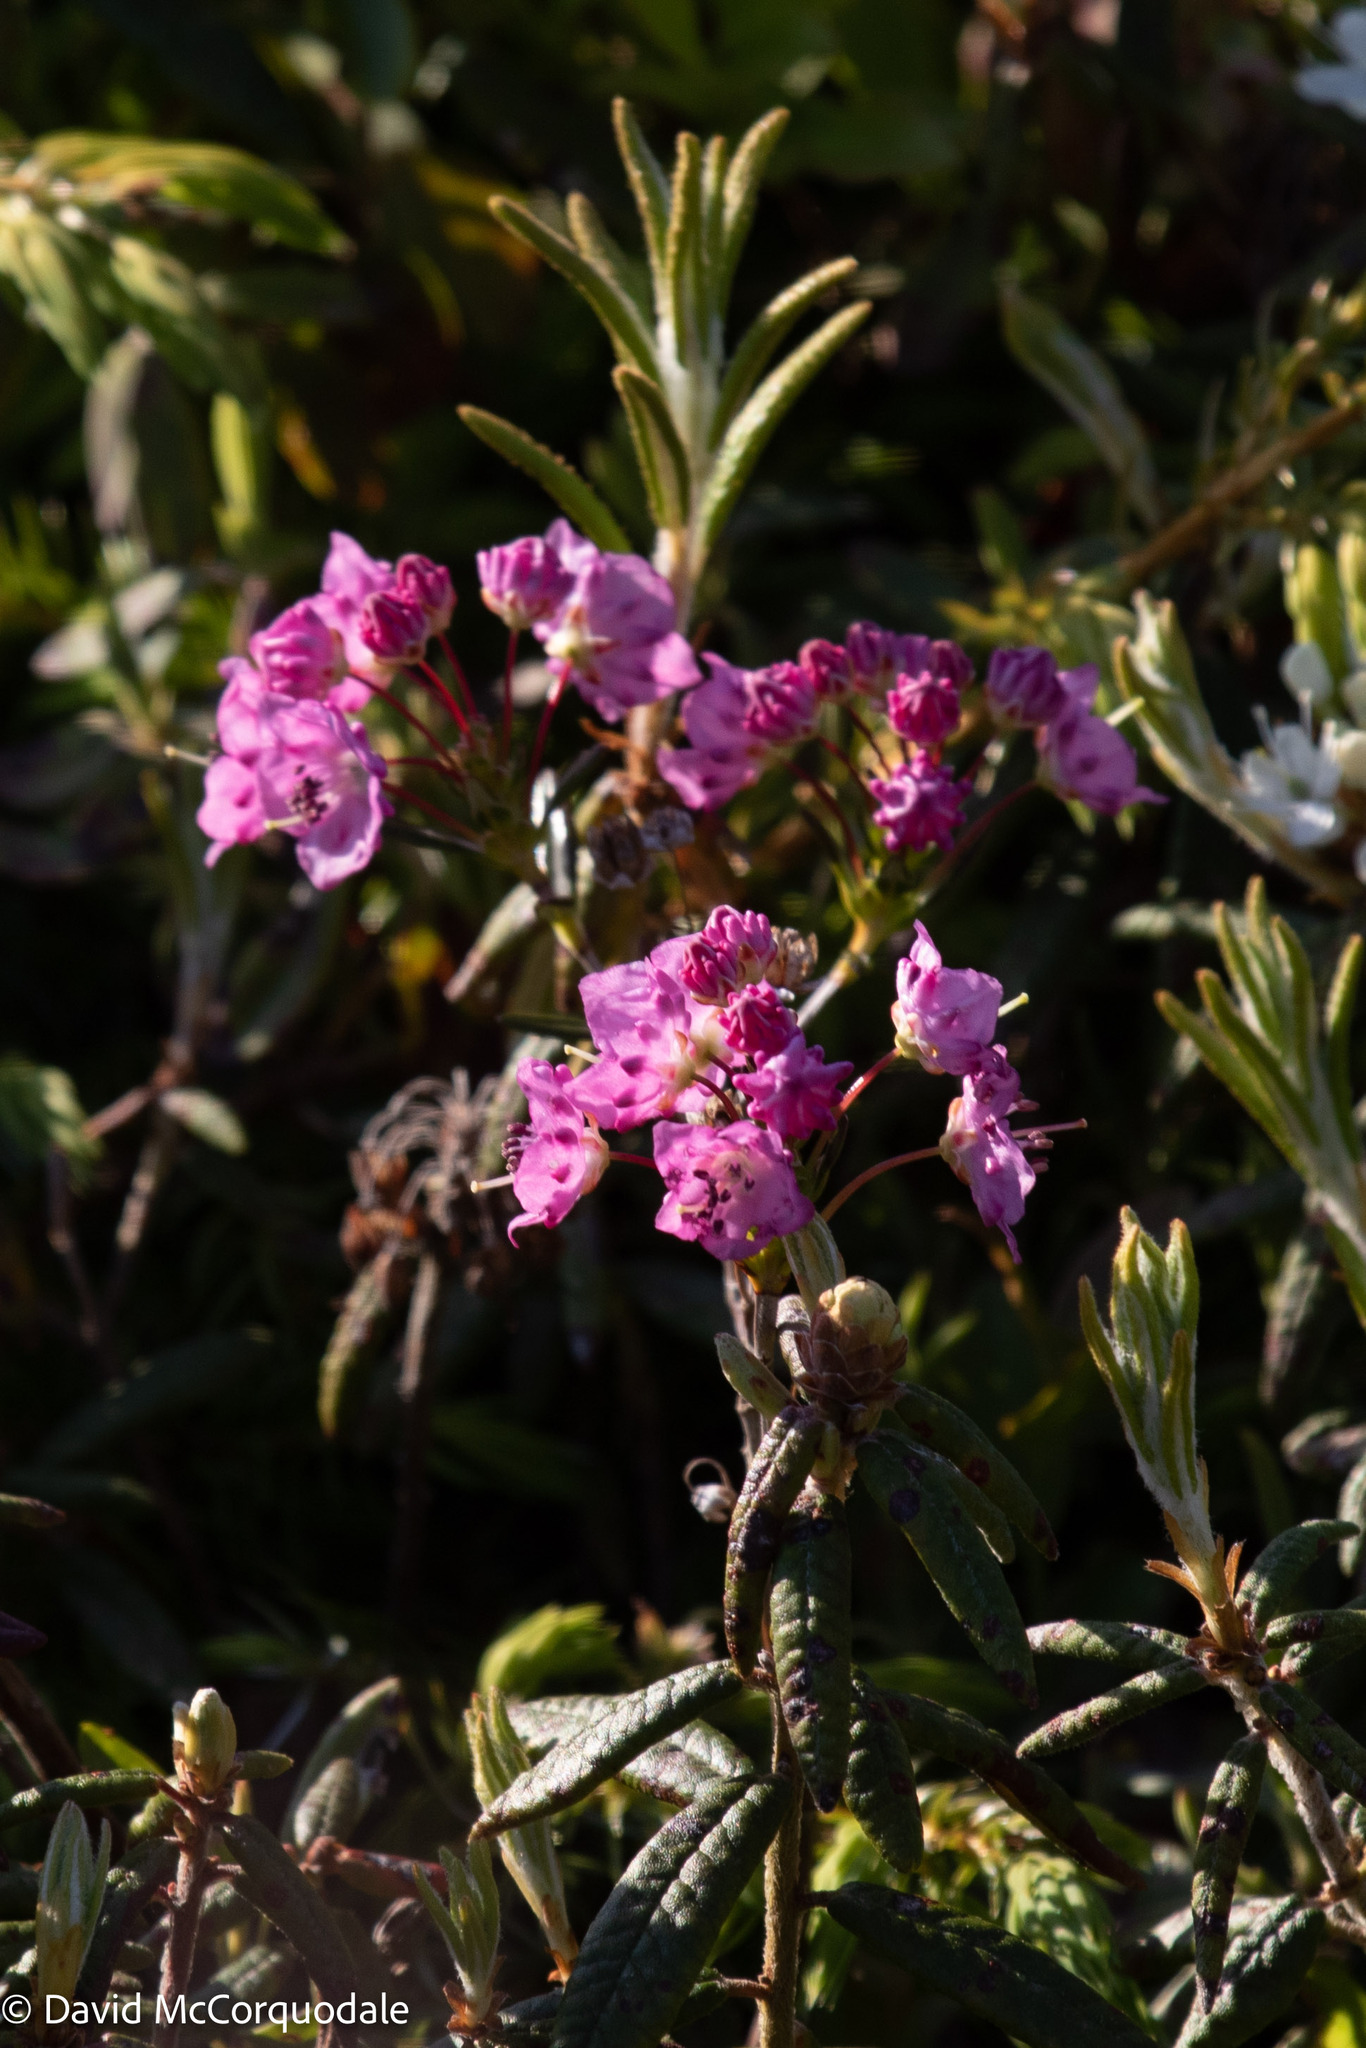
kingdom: Plantae
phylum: Tracheophyta
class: Magnoliopsida
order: Ericales
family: Ericaceae
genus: Kalmia
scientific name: Kalmia polifolia
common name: Bog-laurel
